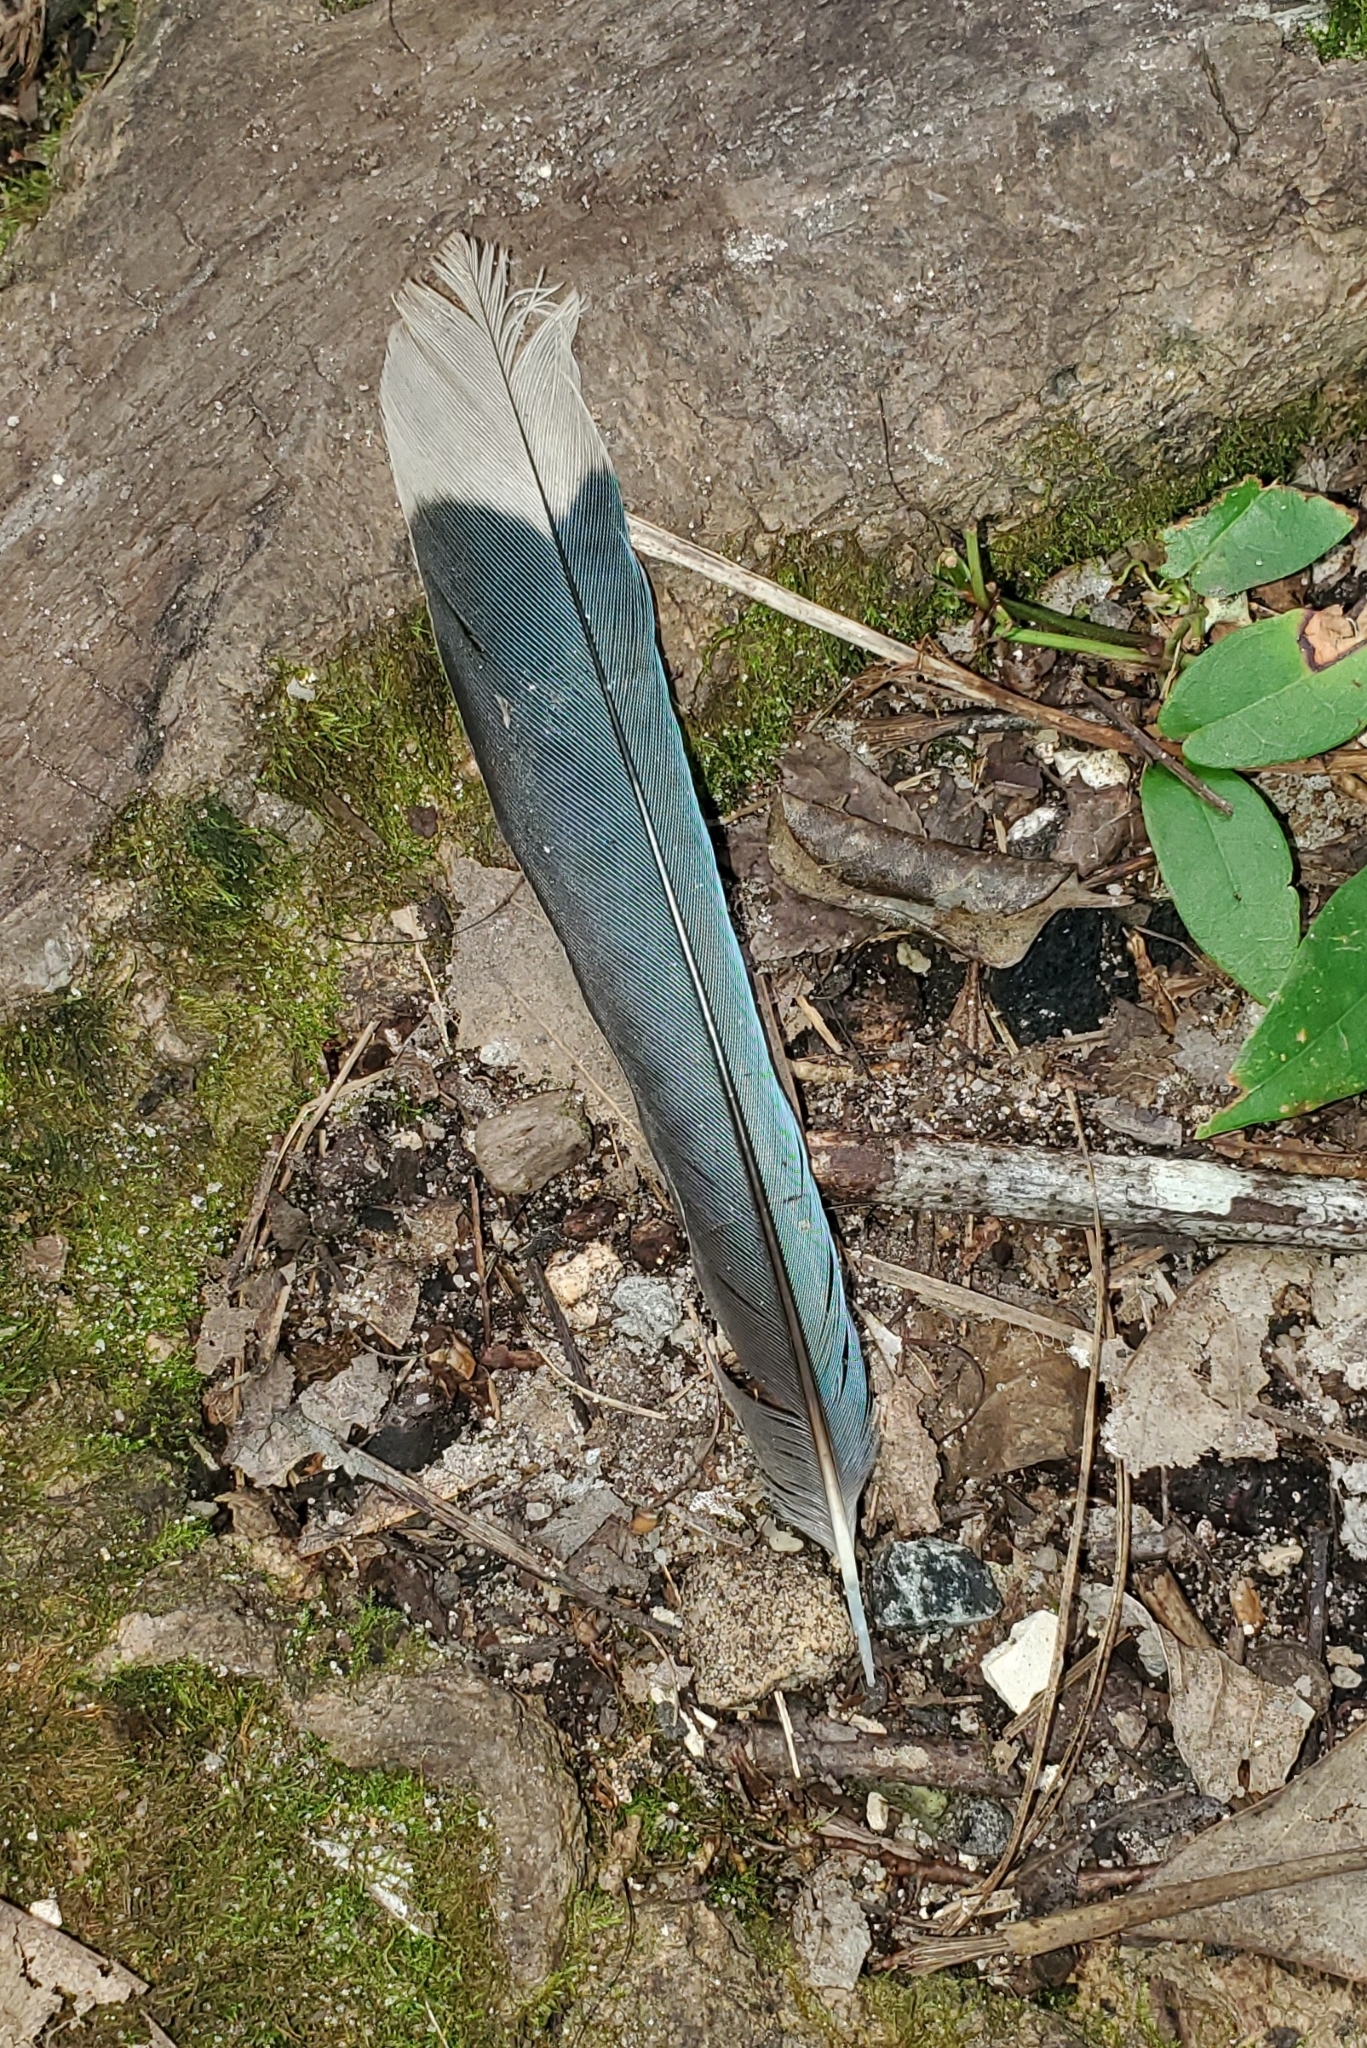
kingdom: Animalia
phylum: Chordata
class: Aves
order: Passeriformes
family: Corvidae
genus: Cyanocitta
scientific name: Cyanocitta cristata
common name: Blue jay
